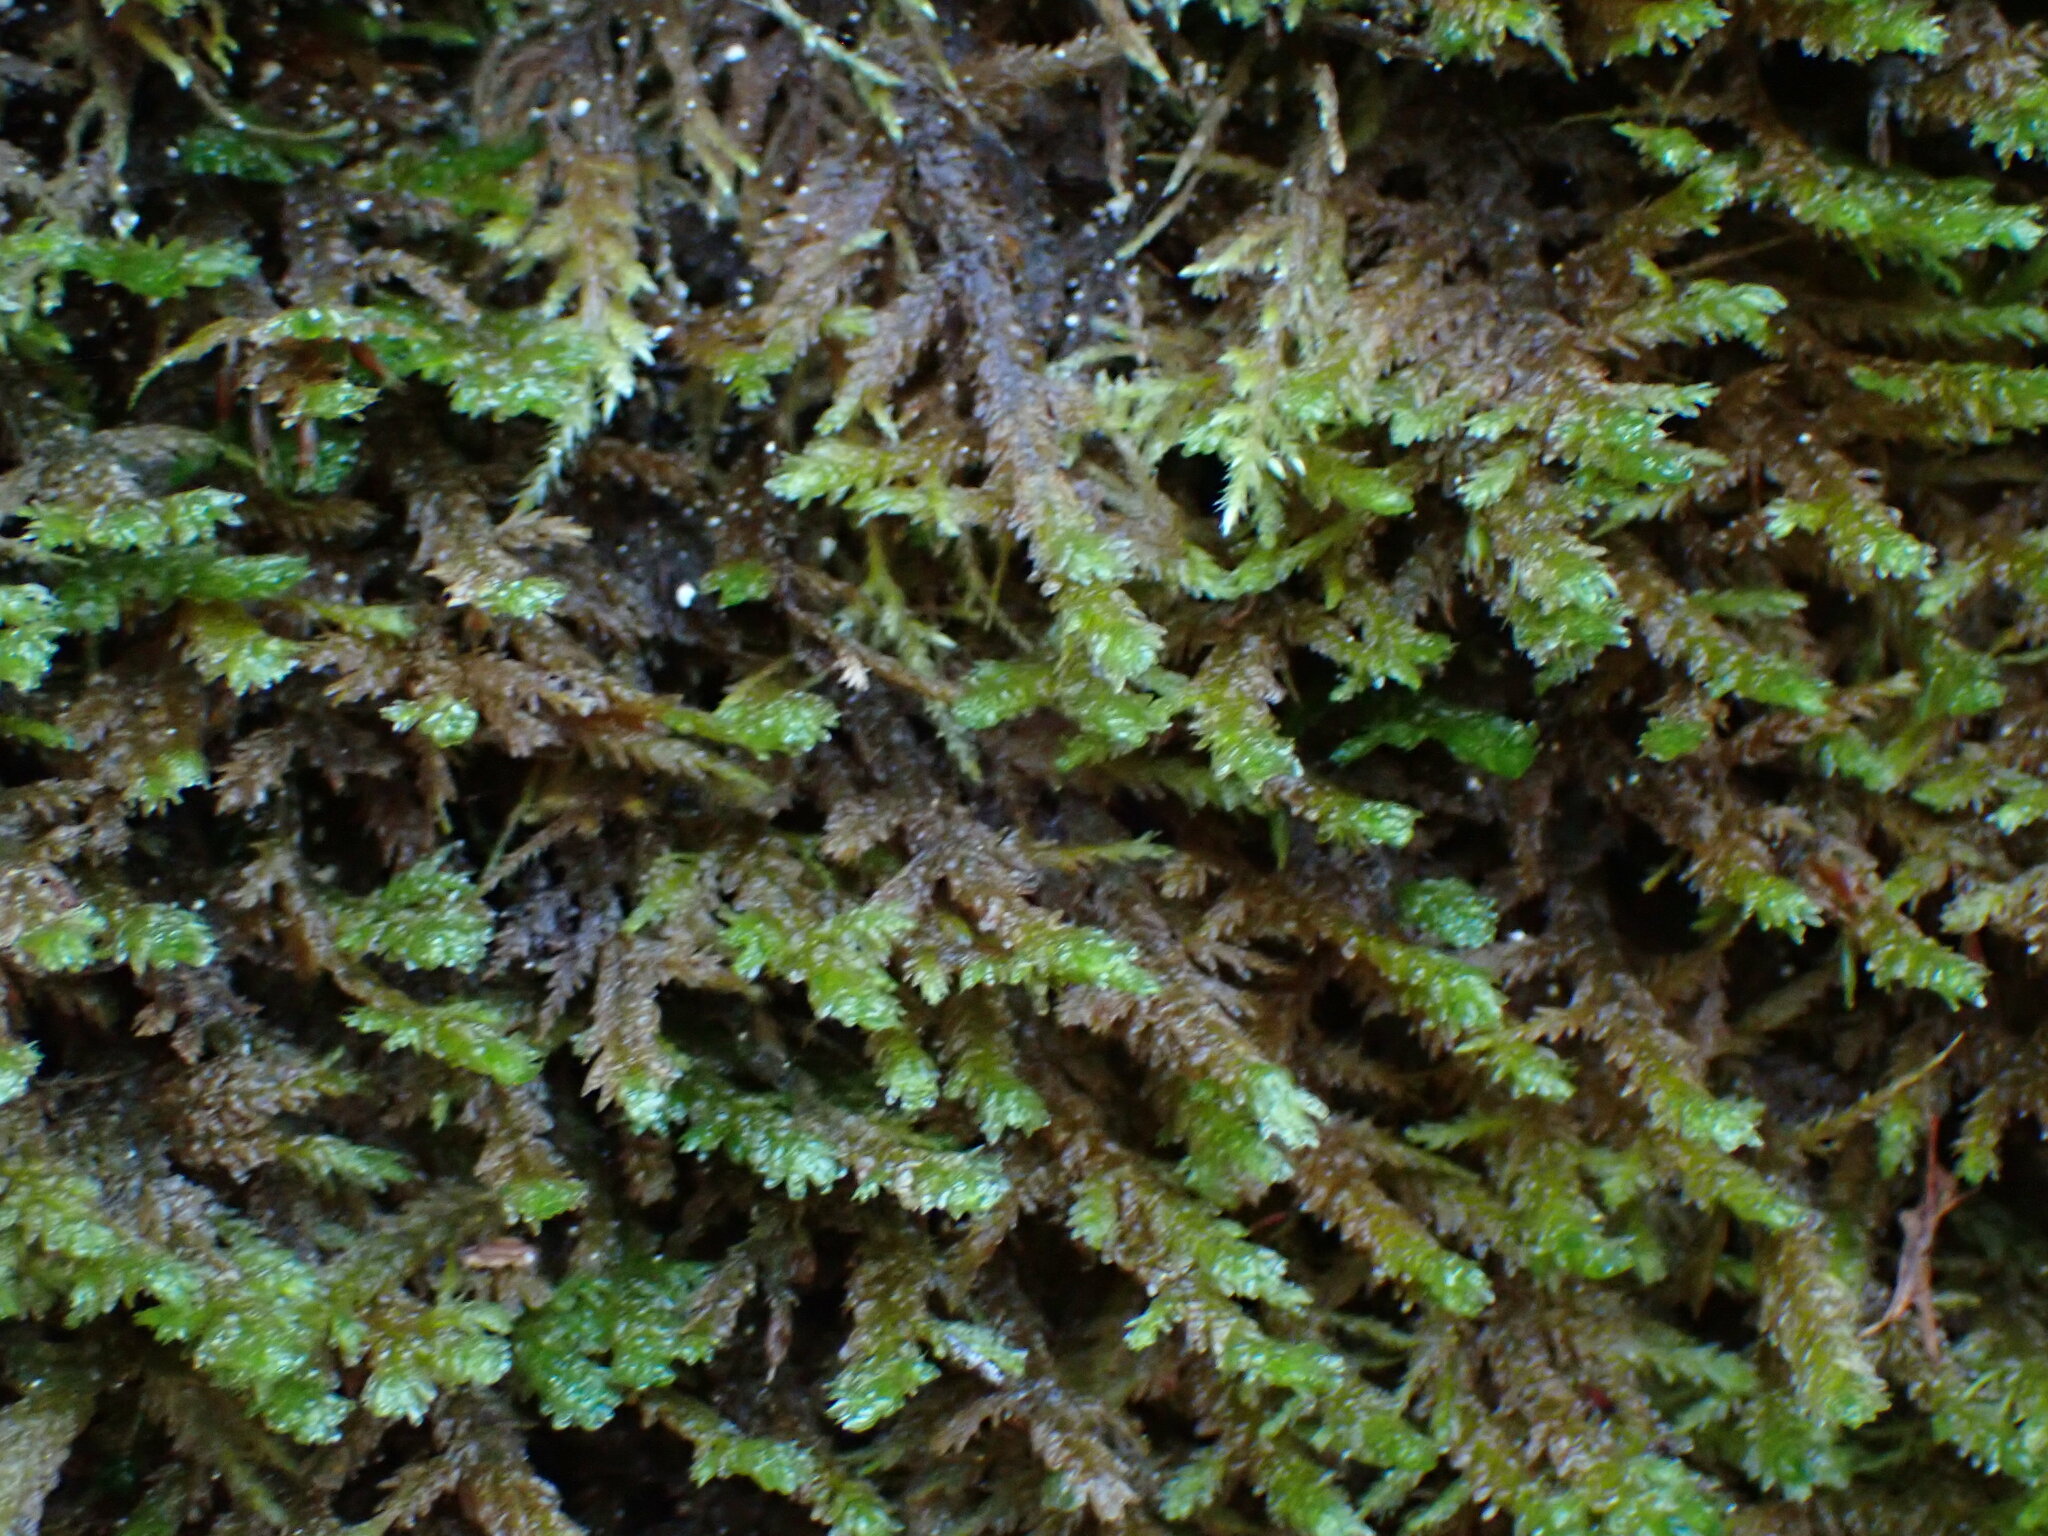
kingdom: Plantae
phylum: Bryophyta
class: Bryopsida
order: Hypnales
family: Neckeraceae
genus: Metaneckera
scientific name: Metaneckera menziesii
